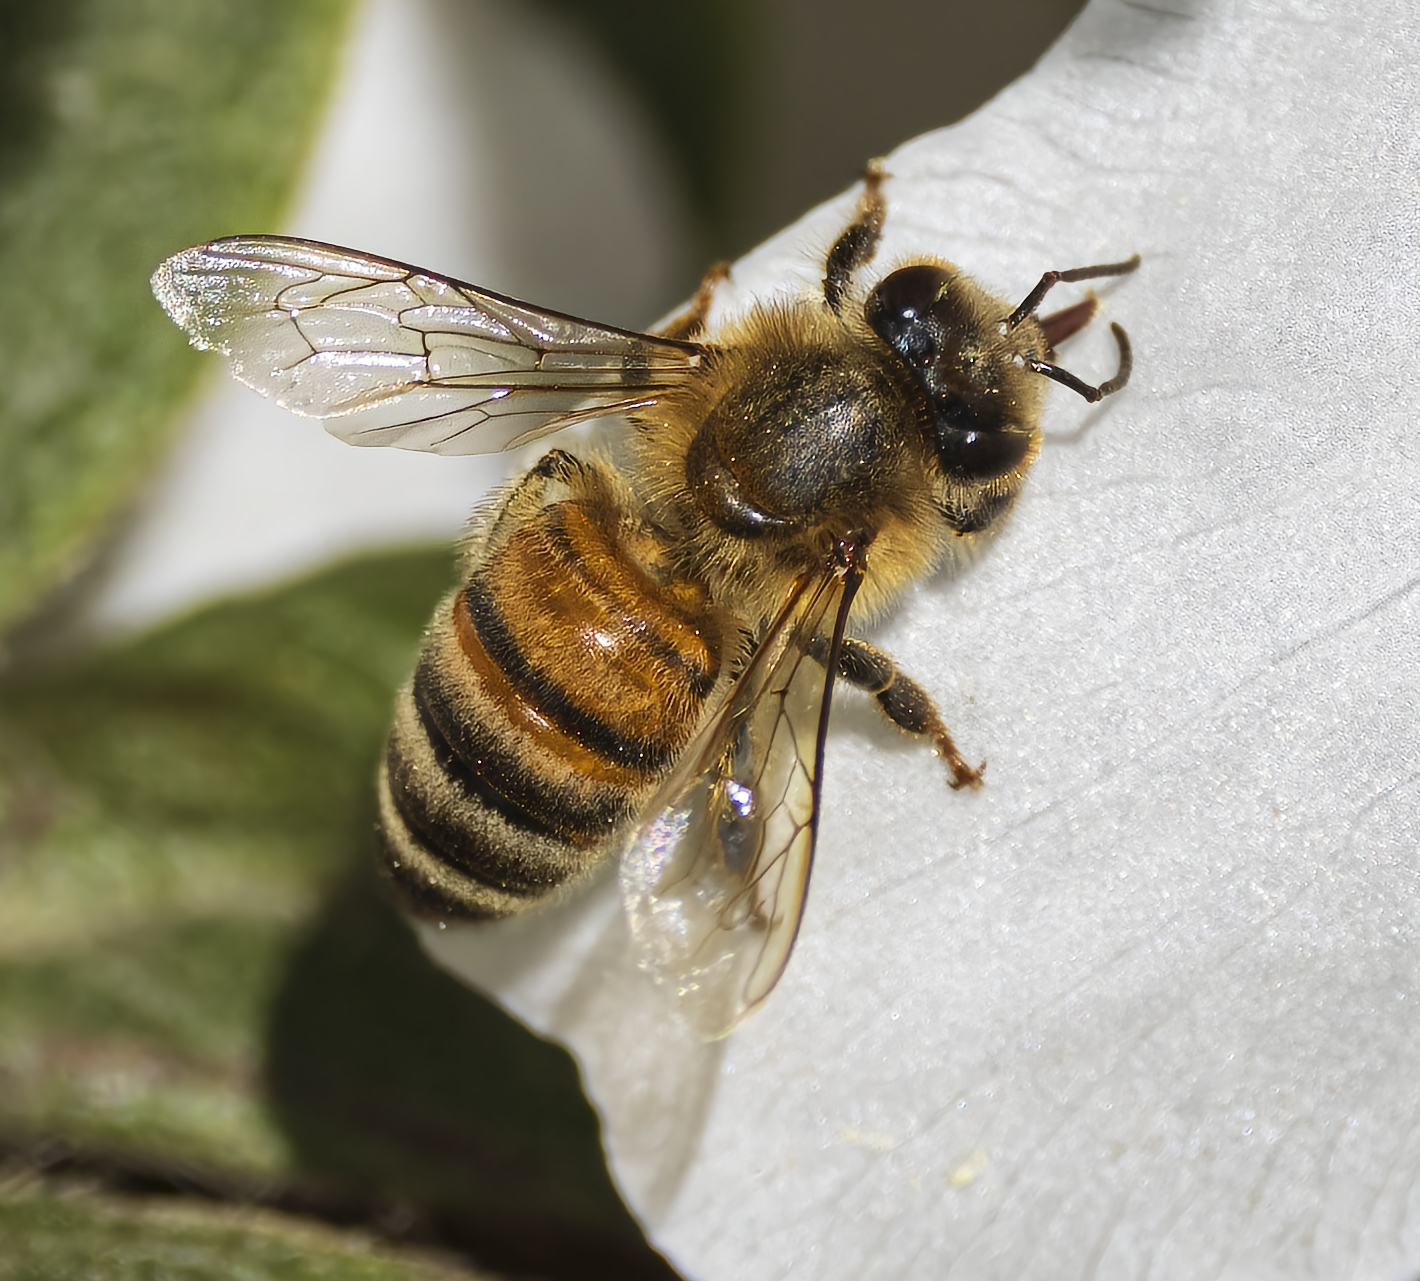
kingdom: Animalia
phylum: Arthropoda
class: Insecta
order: Hymenoptera
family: Apidae
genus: Apis
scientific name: Apis mellifera
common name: Honey bee
